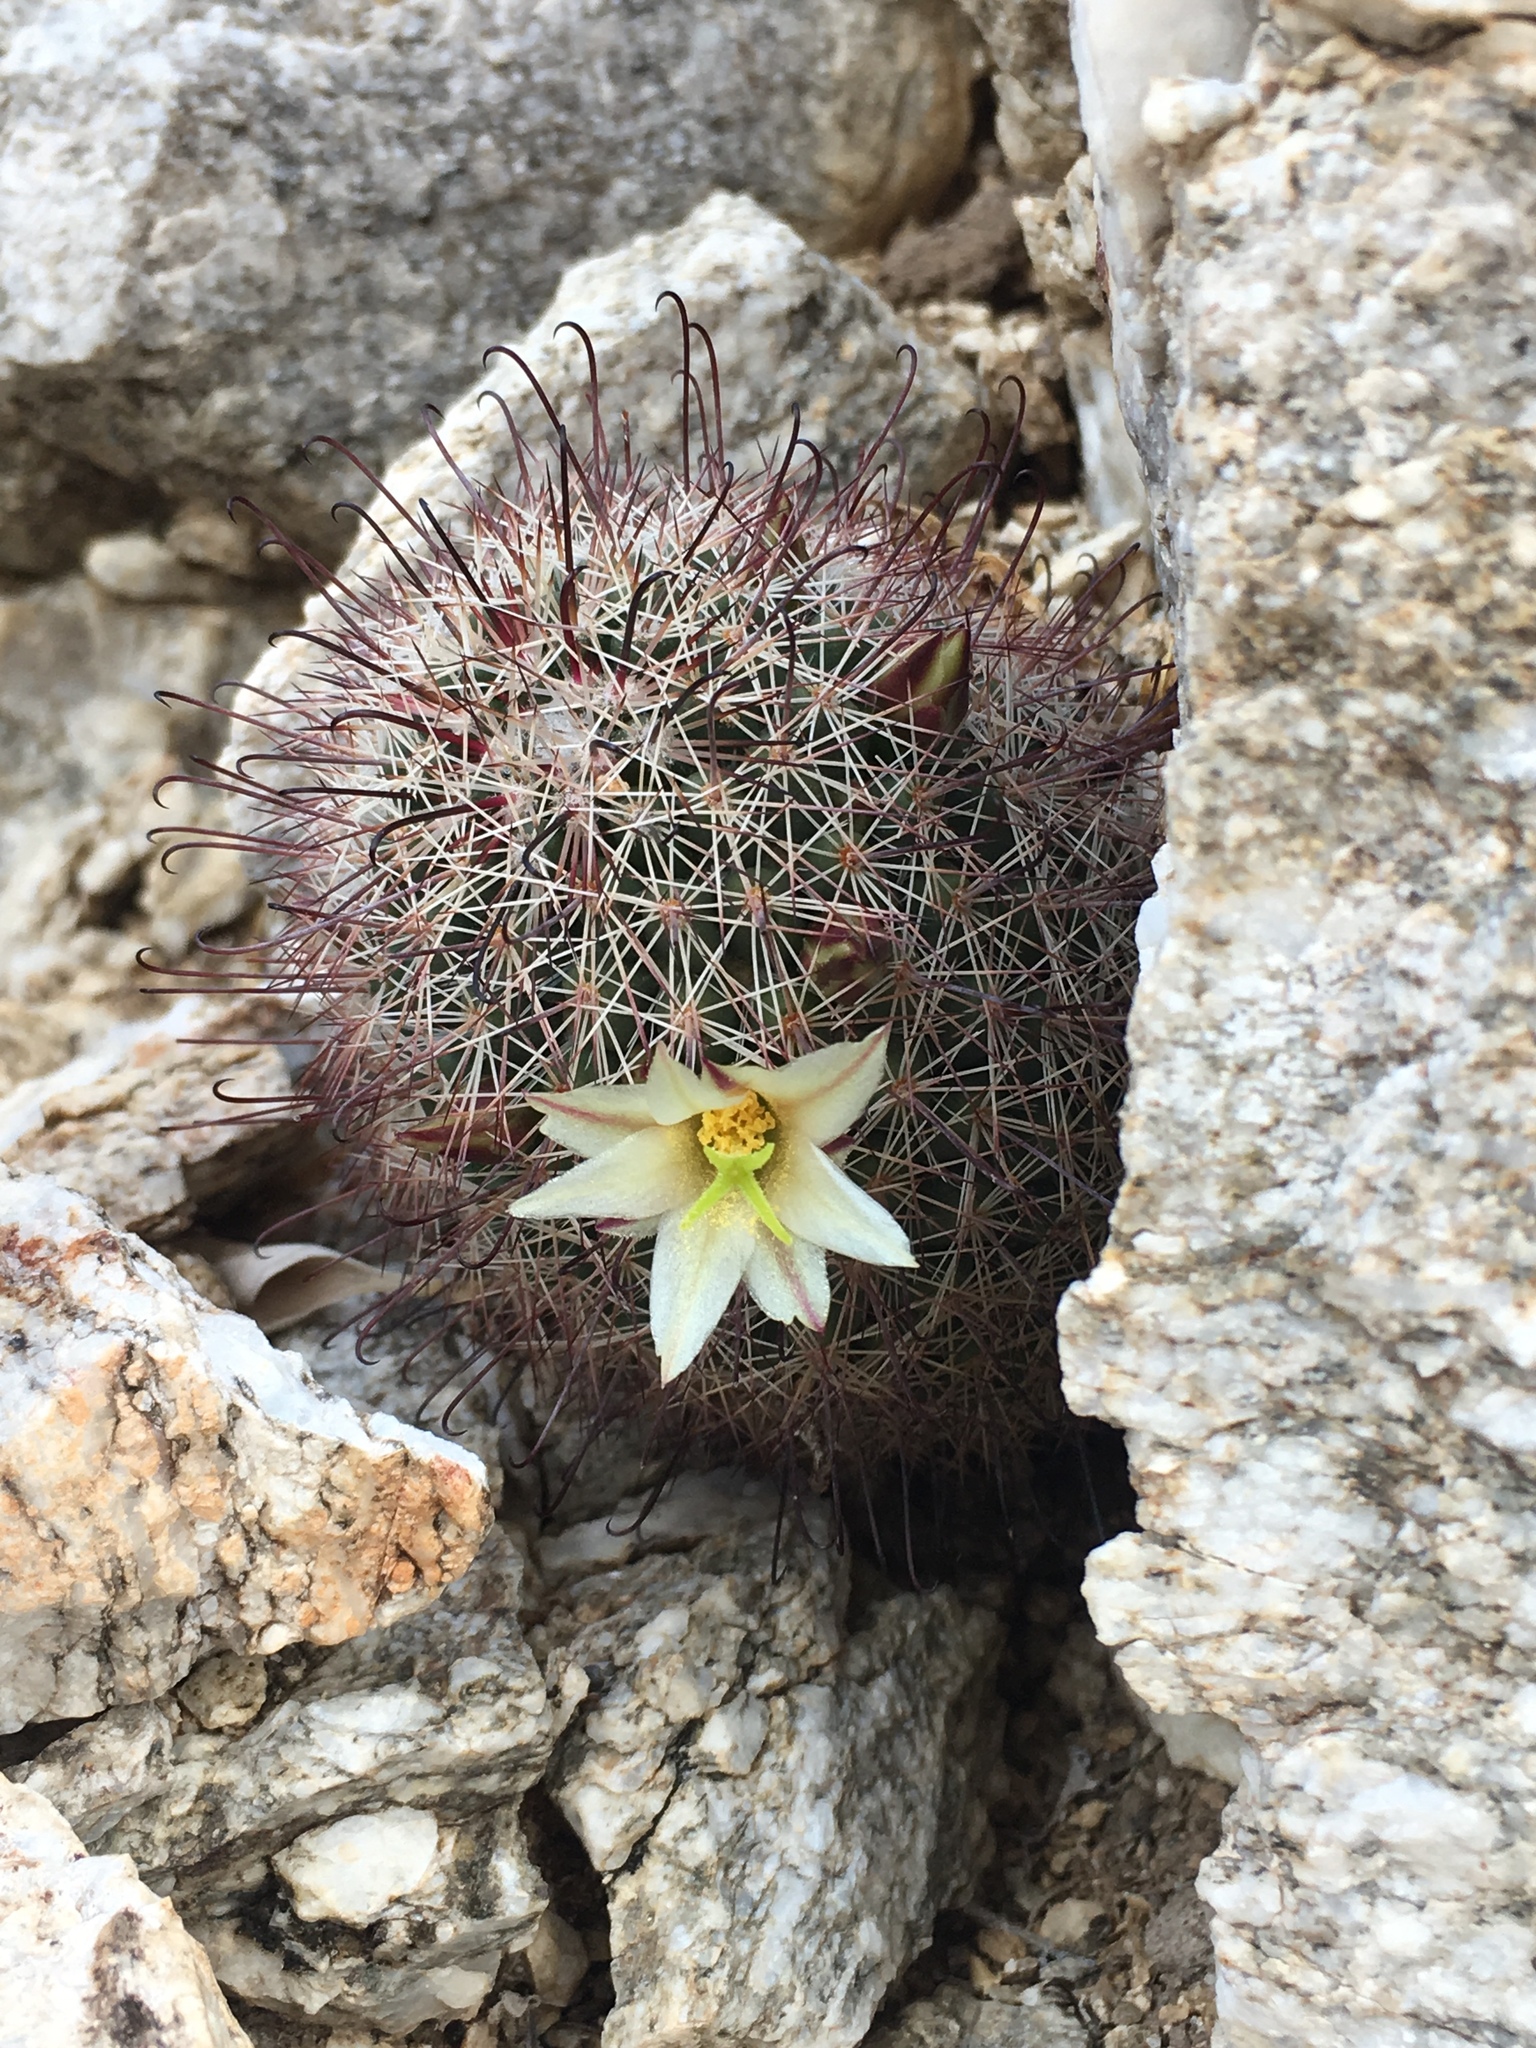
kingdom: Plantae
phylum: Tracheophyta
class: Magnoliopsida
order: Caryophyllales
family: Cactaceae
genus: Cochemiea
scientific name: Cochemiea dioica
